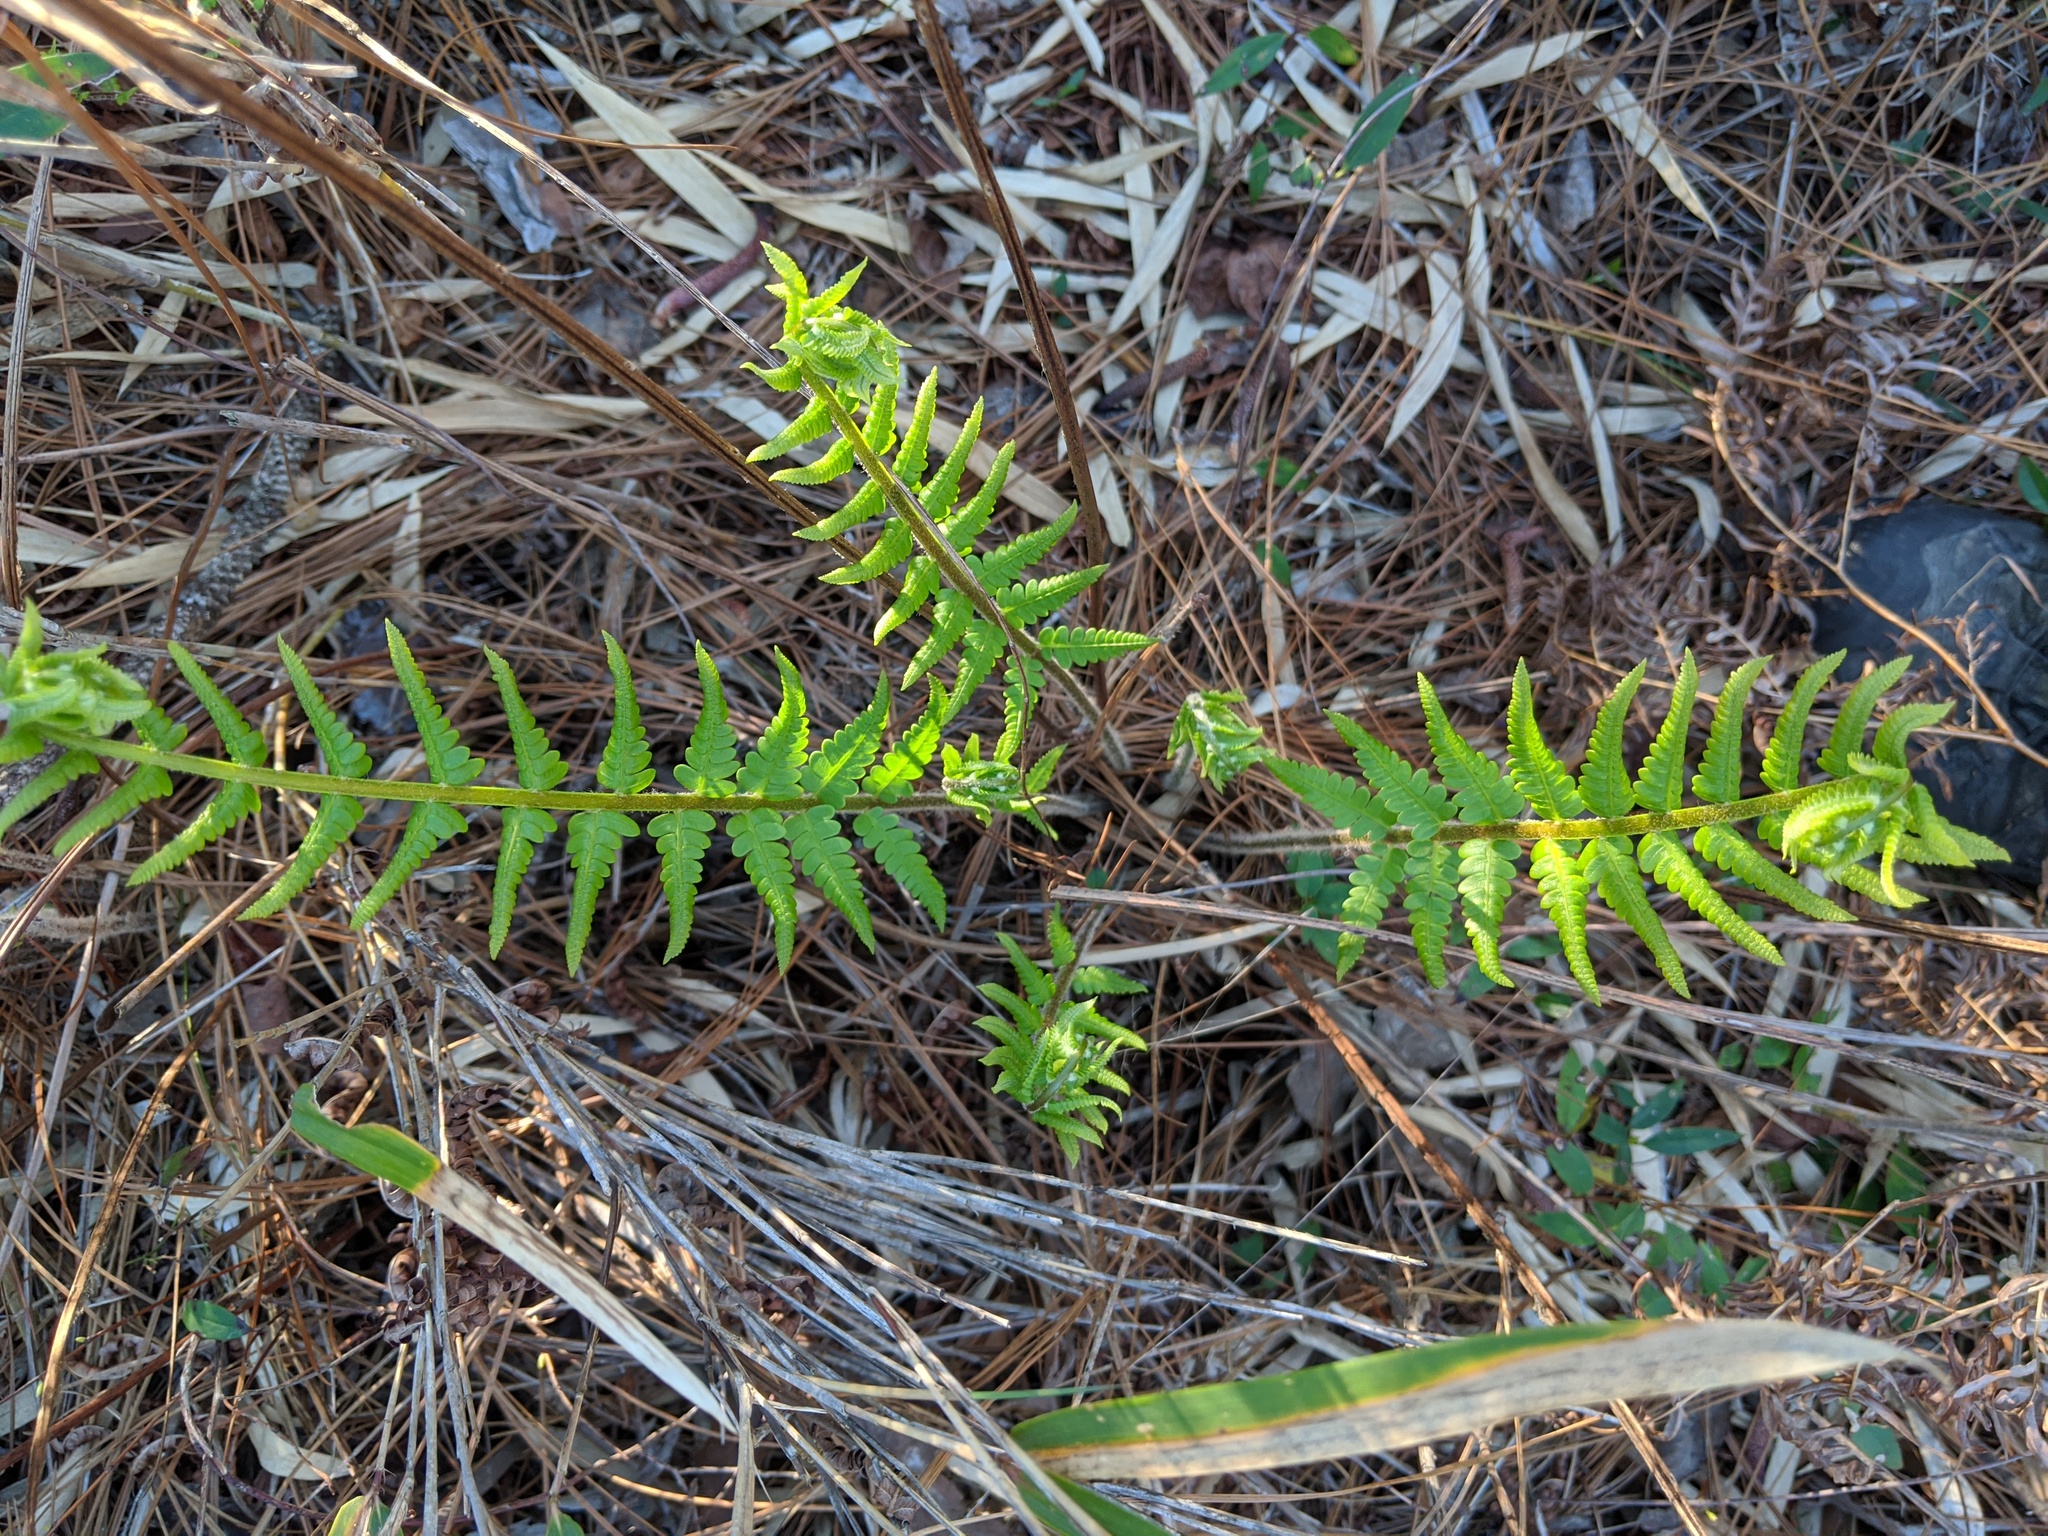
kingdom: Plantae
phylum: Tracheophyta
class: Polypodiopsida
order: Osmundales
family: Osmundaceae
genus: Osmundastrum
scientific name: Osmundastrum cinnamomeum
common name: Cinnamon fern
